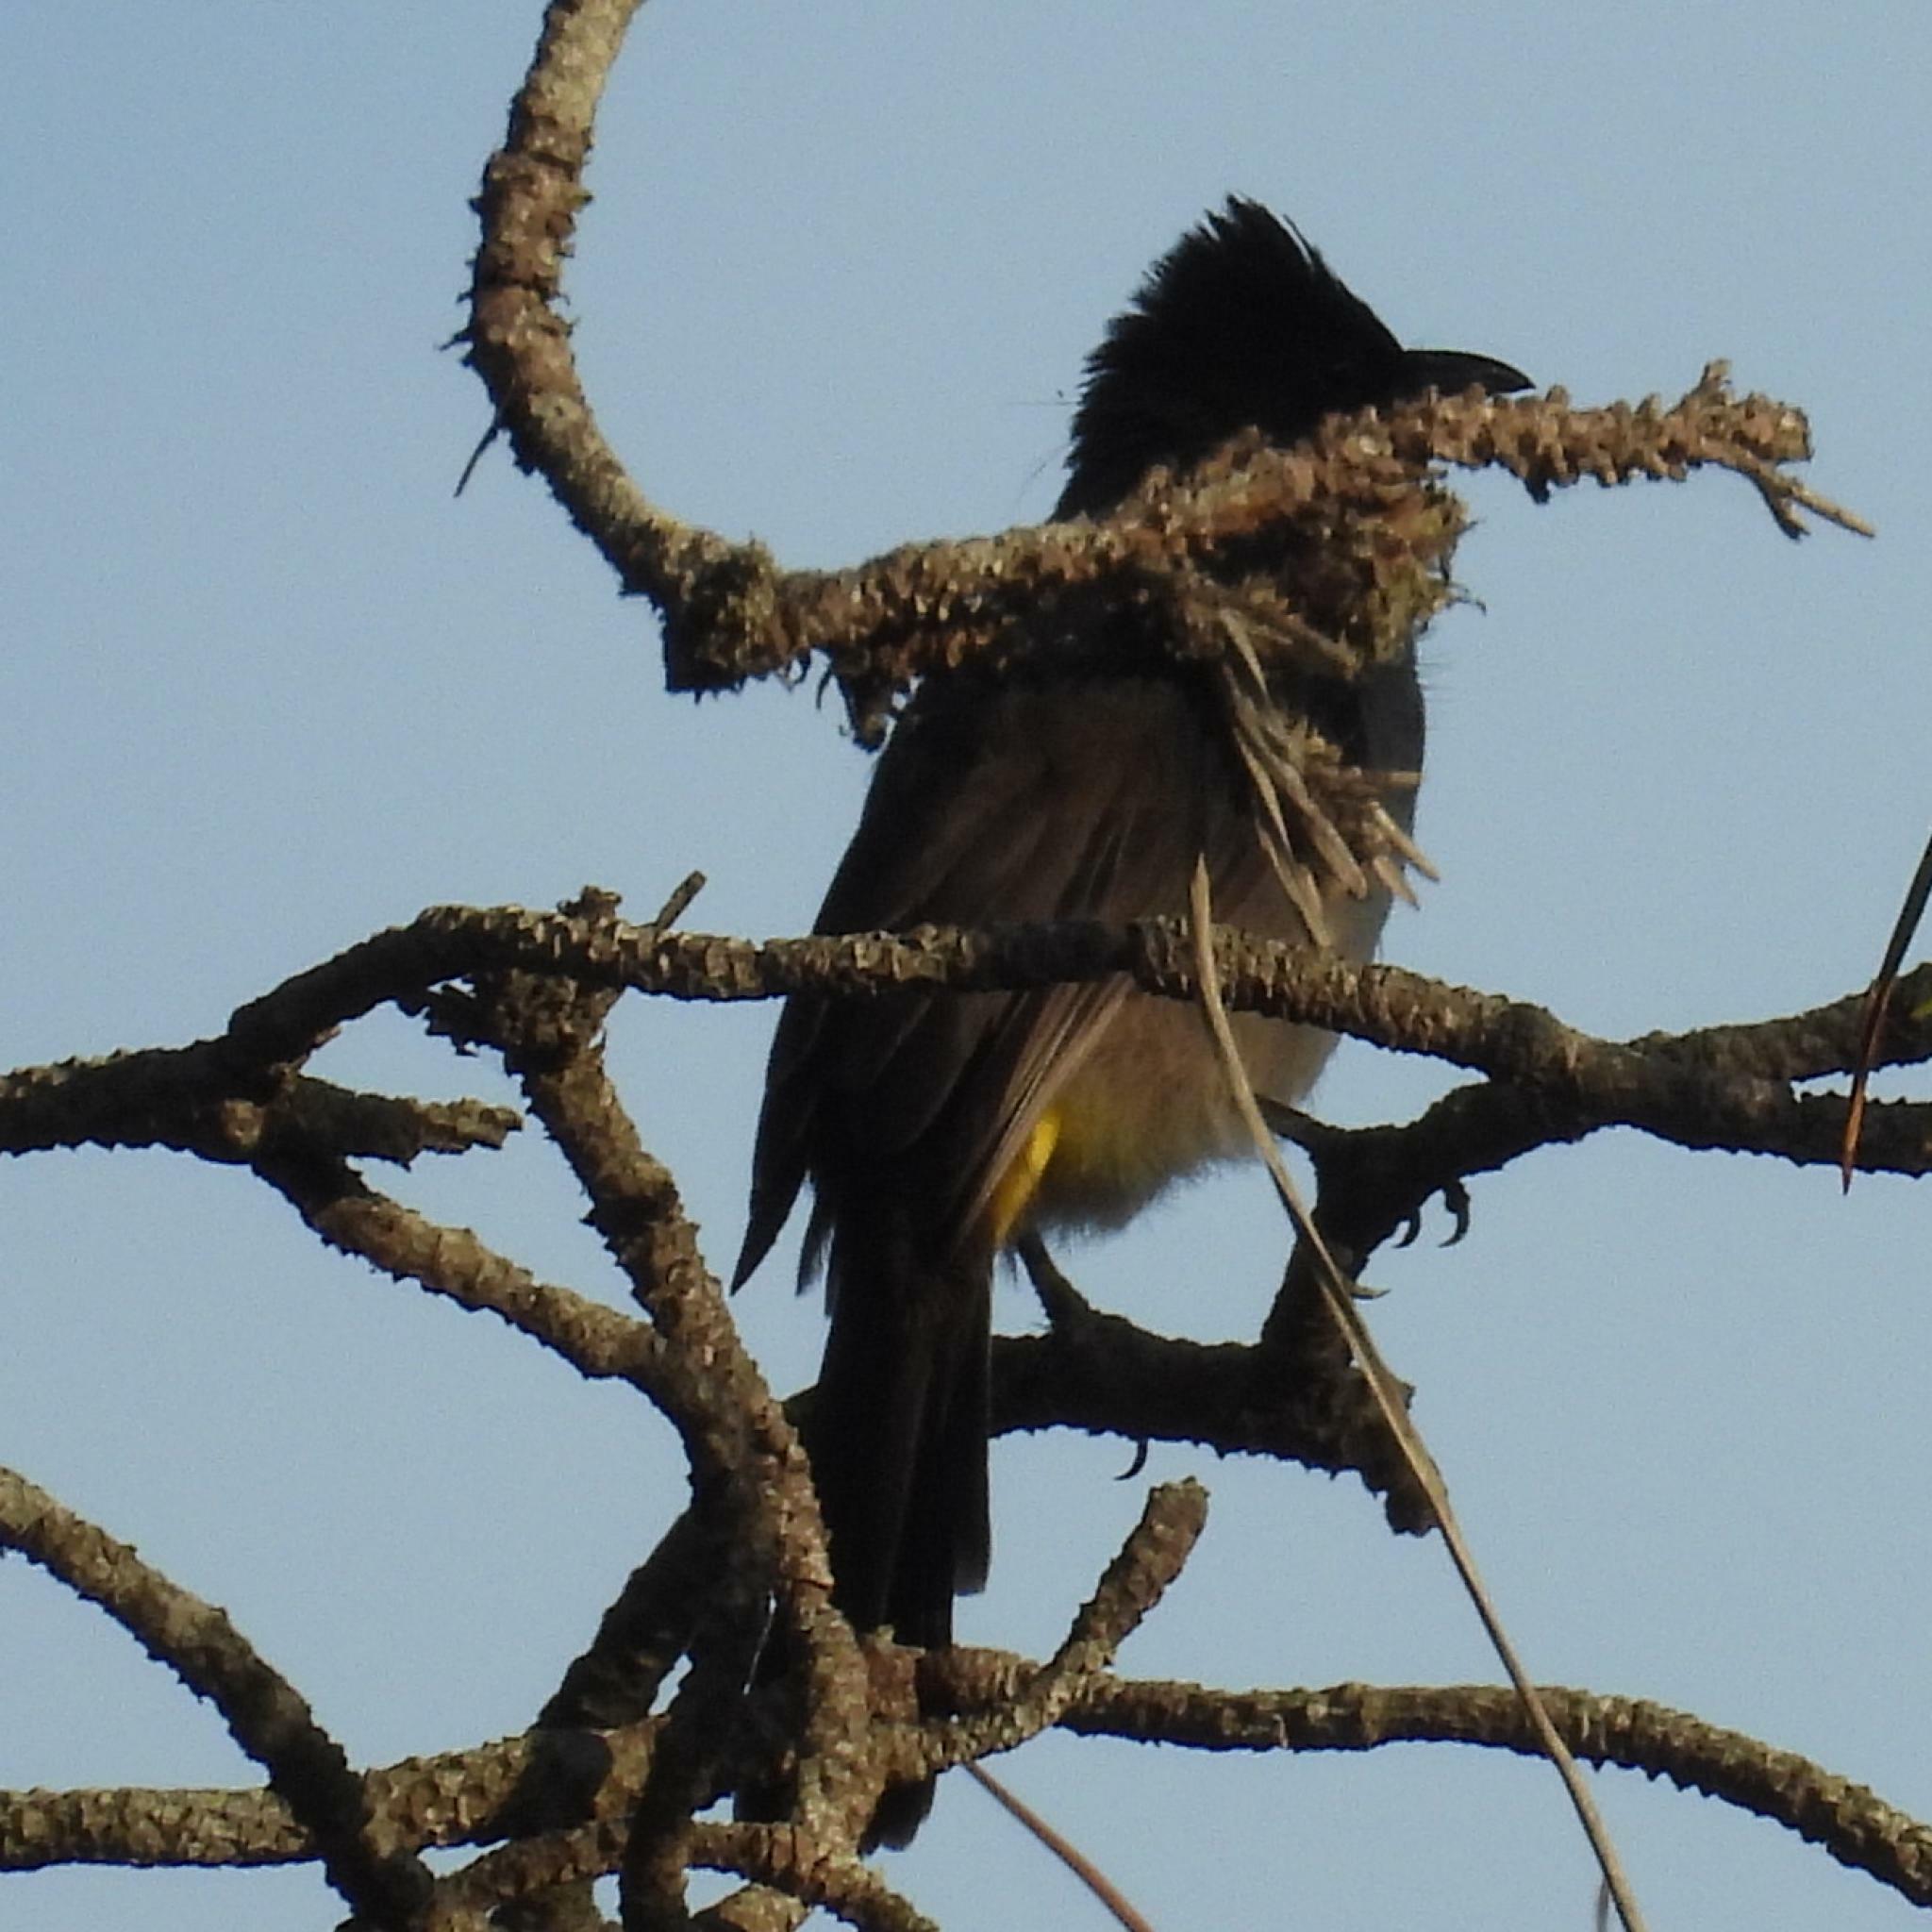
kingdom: Animalia
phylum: Chordata
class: Aves
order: Passeriformes
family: Pycnonotidae
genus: Pycnonotus
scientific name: Pycnonotus barbatus
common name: Common bulbul
